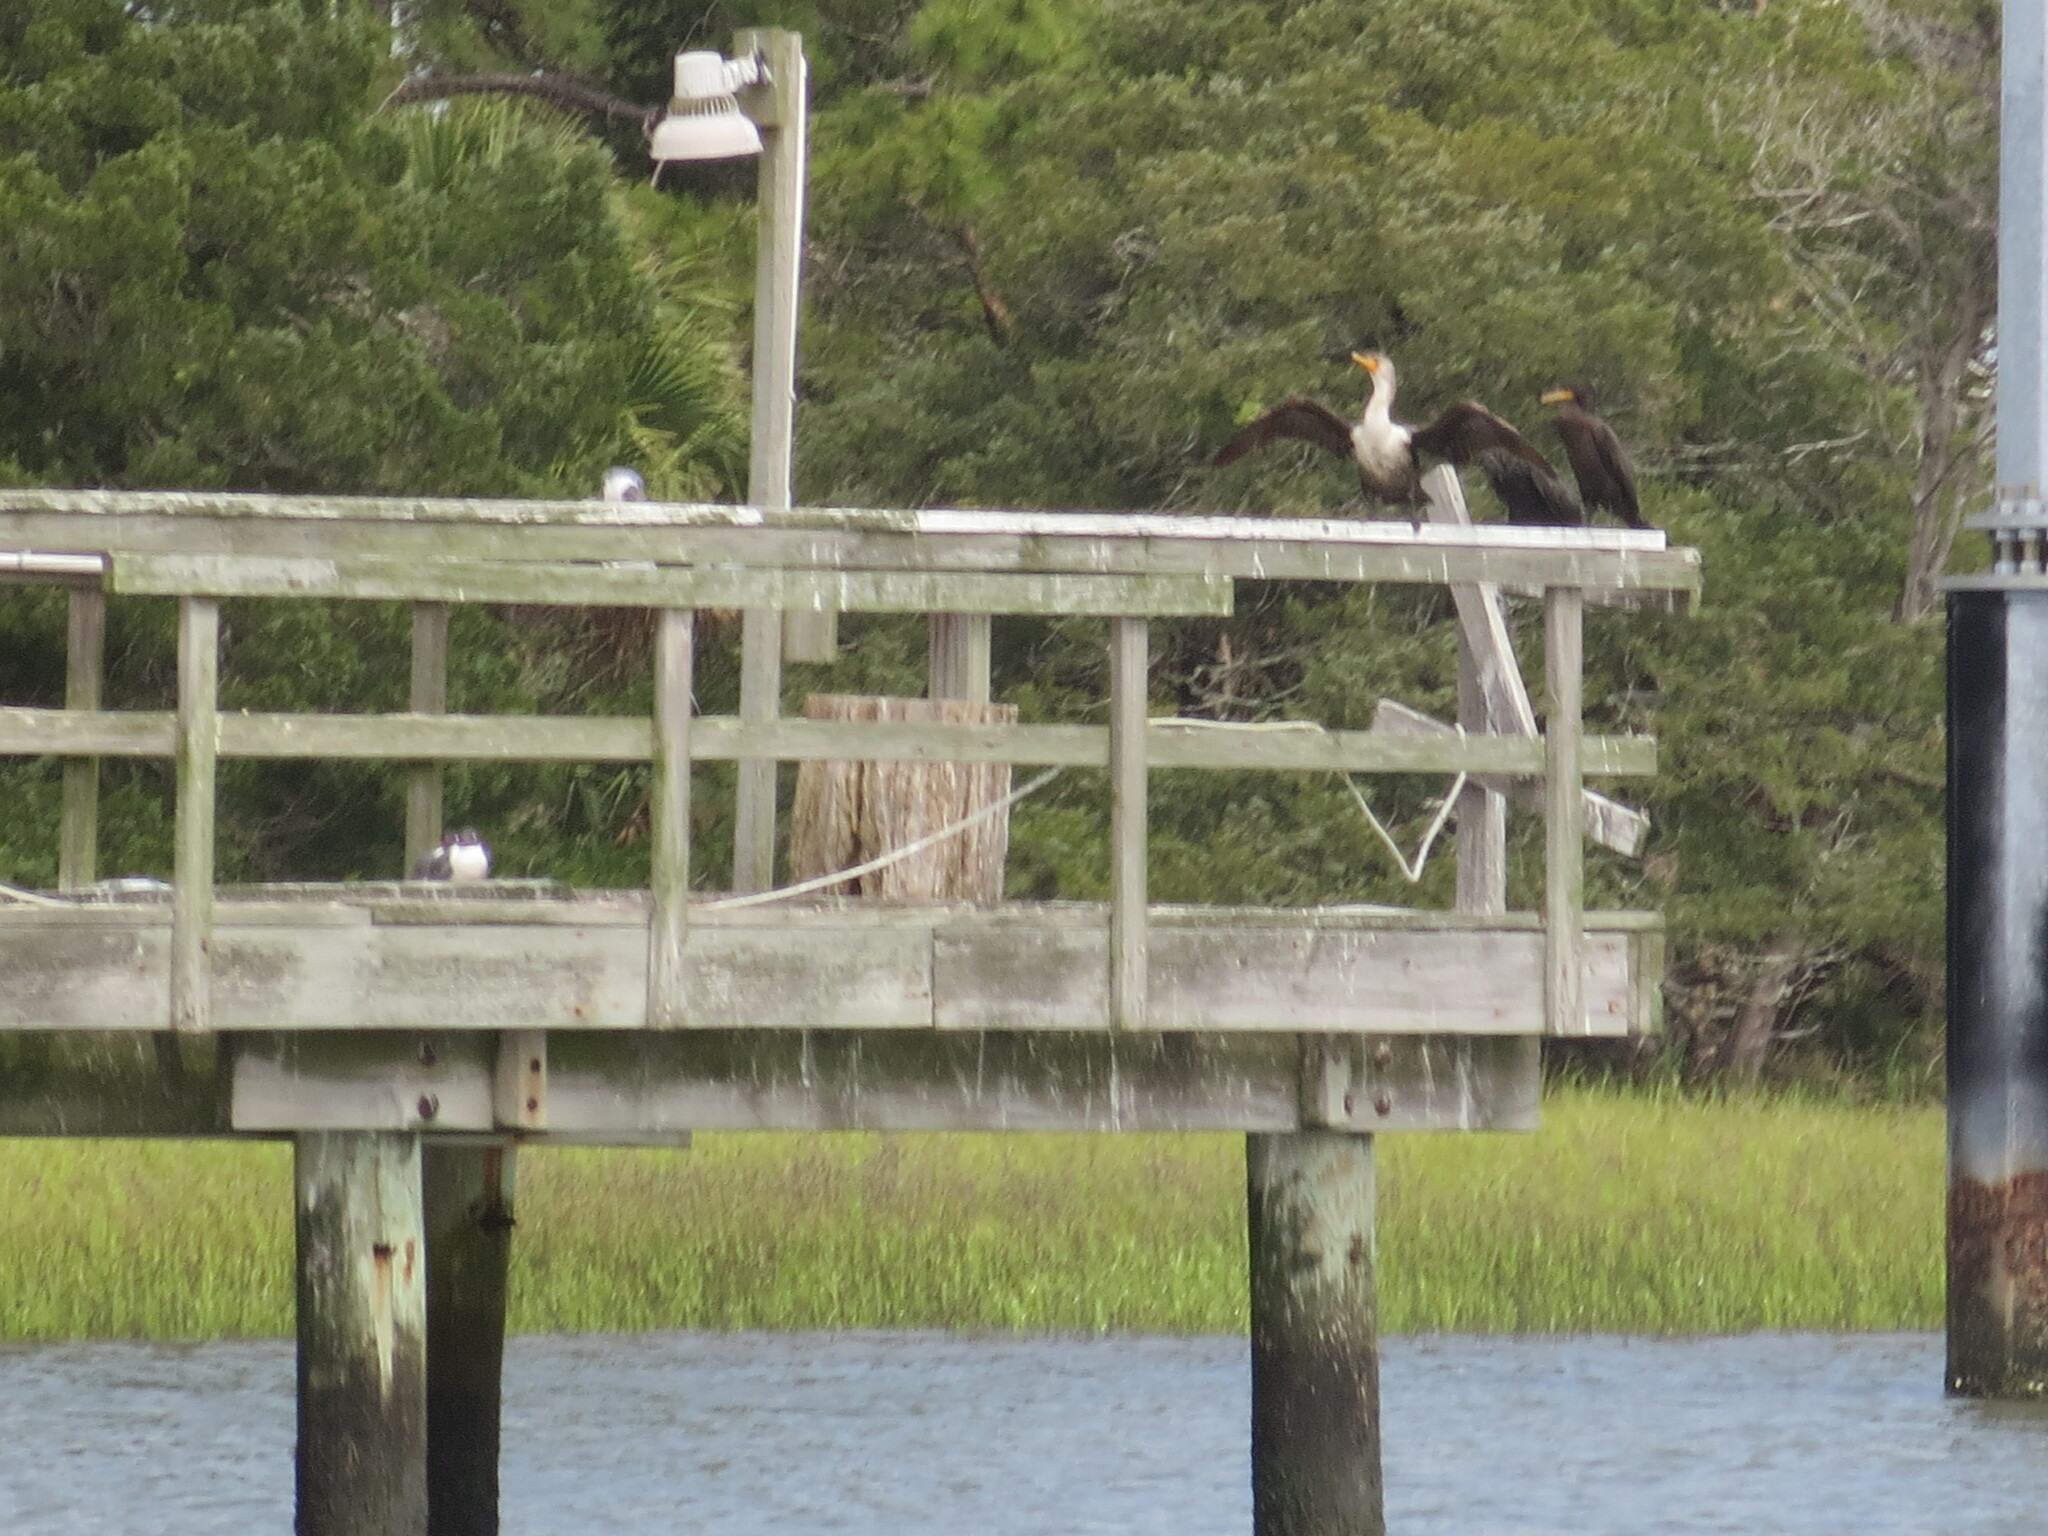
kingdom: Animalia
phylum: Chordata
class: Aves
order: Suliformes
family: Phalacrocoracidae
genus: Phalacrocorax
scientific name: Phalacrocorax auritus
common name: Double-crested cormorant
